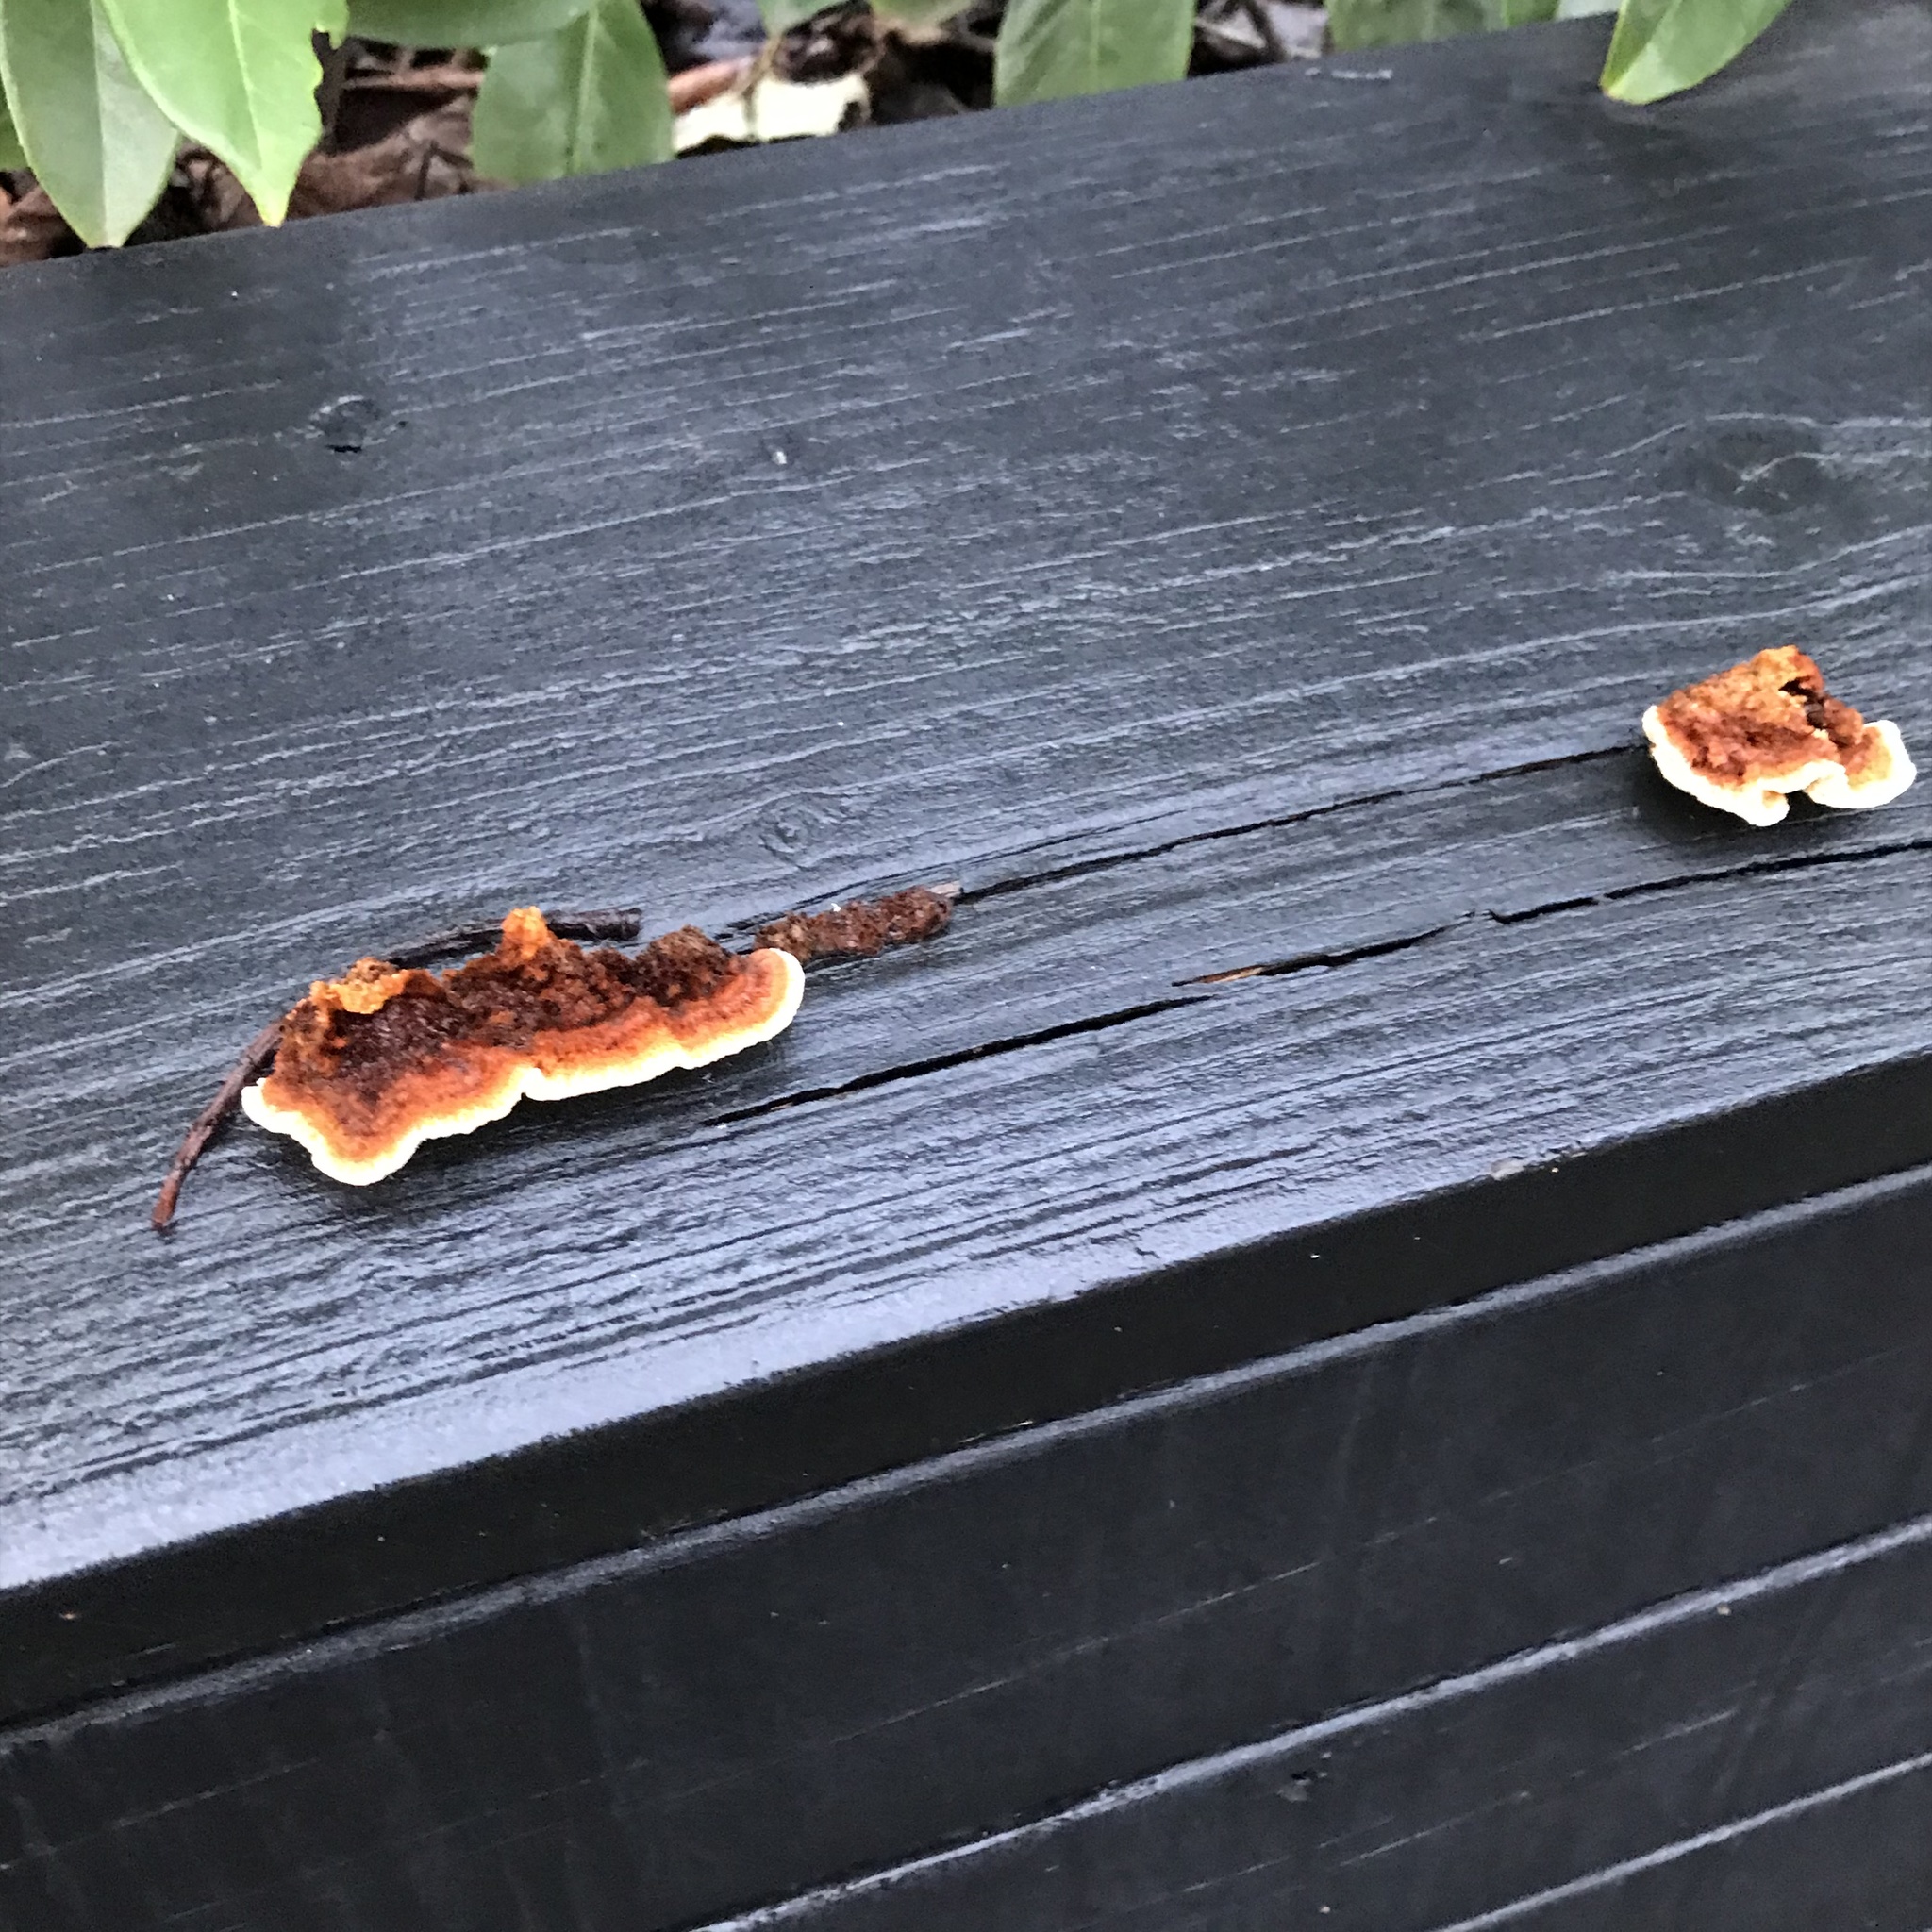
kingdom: Fungi
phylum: Basidiomycota
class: Agaricomycetes
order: Gloeophyllales
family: Gloeophyllaceae
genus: Gloeophyllum
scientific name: Gloeophyllum sepiarium
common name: Conifer mazegill
